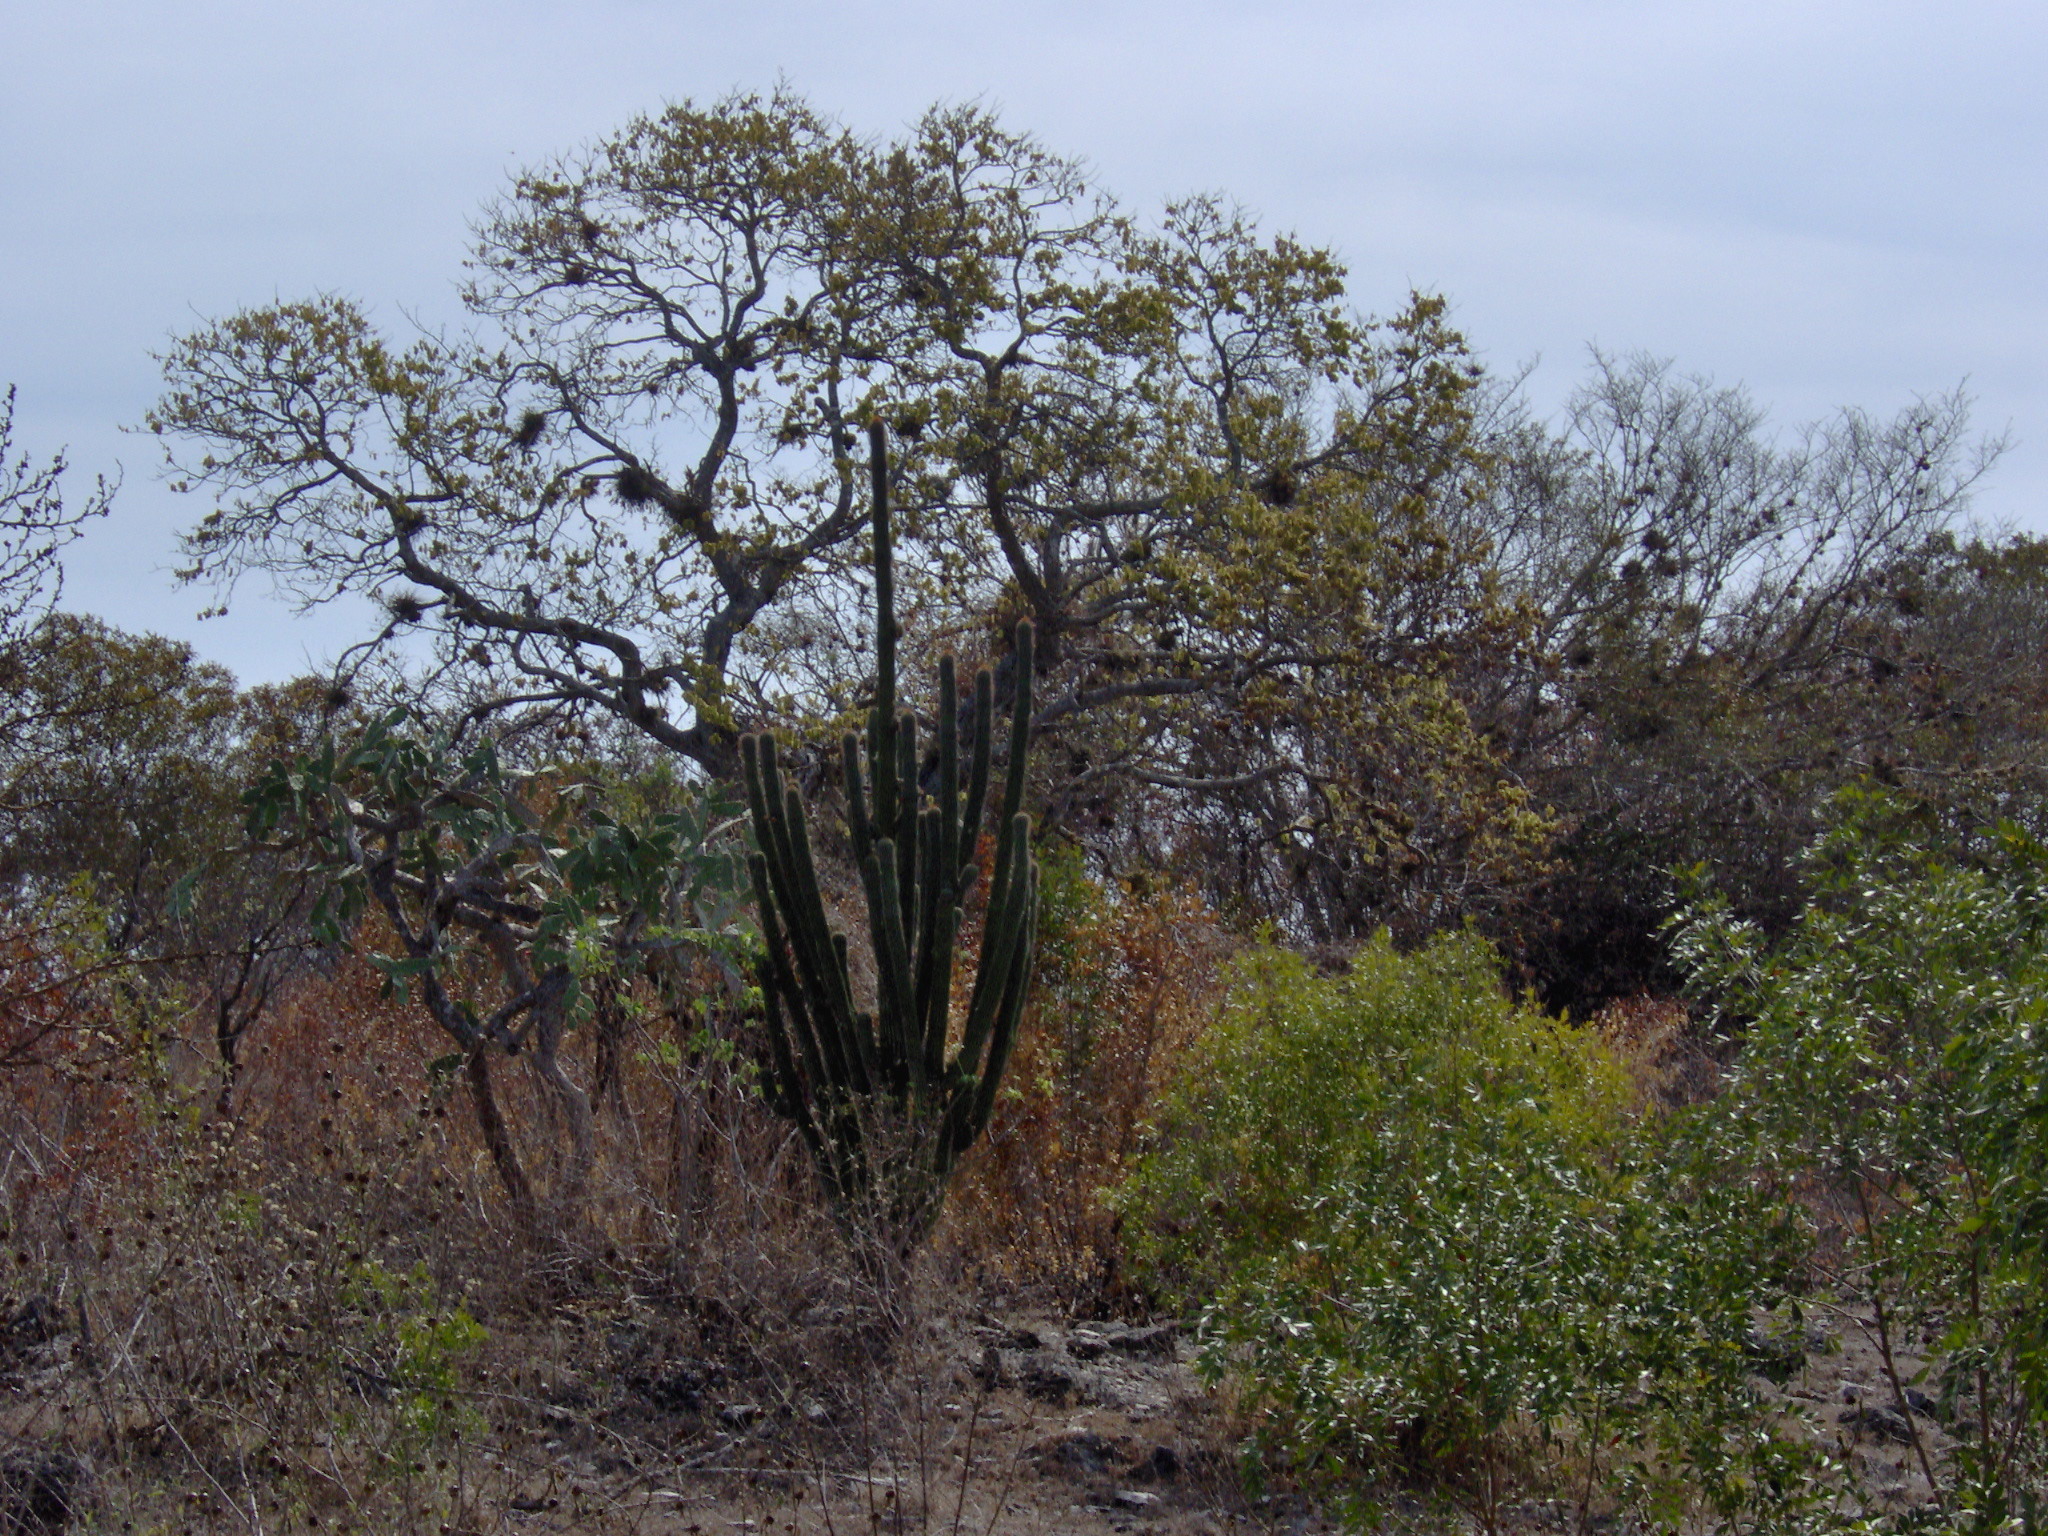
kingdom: Plantae
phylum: Tracheophyta
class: Magnoliopsida
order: Caryophyllales
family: Cactaceae
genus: Cephalocereus
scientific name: Cephalocereus scoparius
